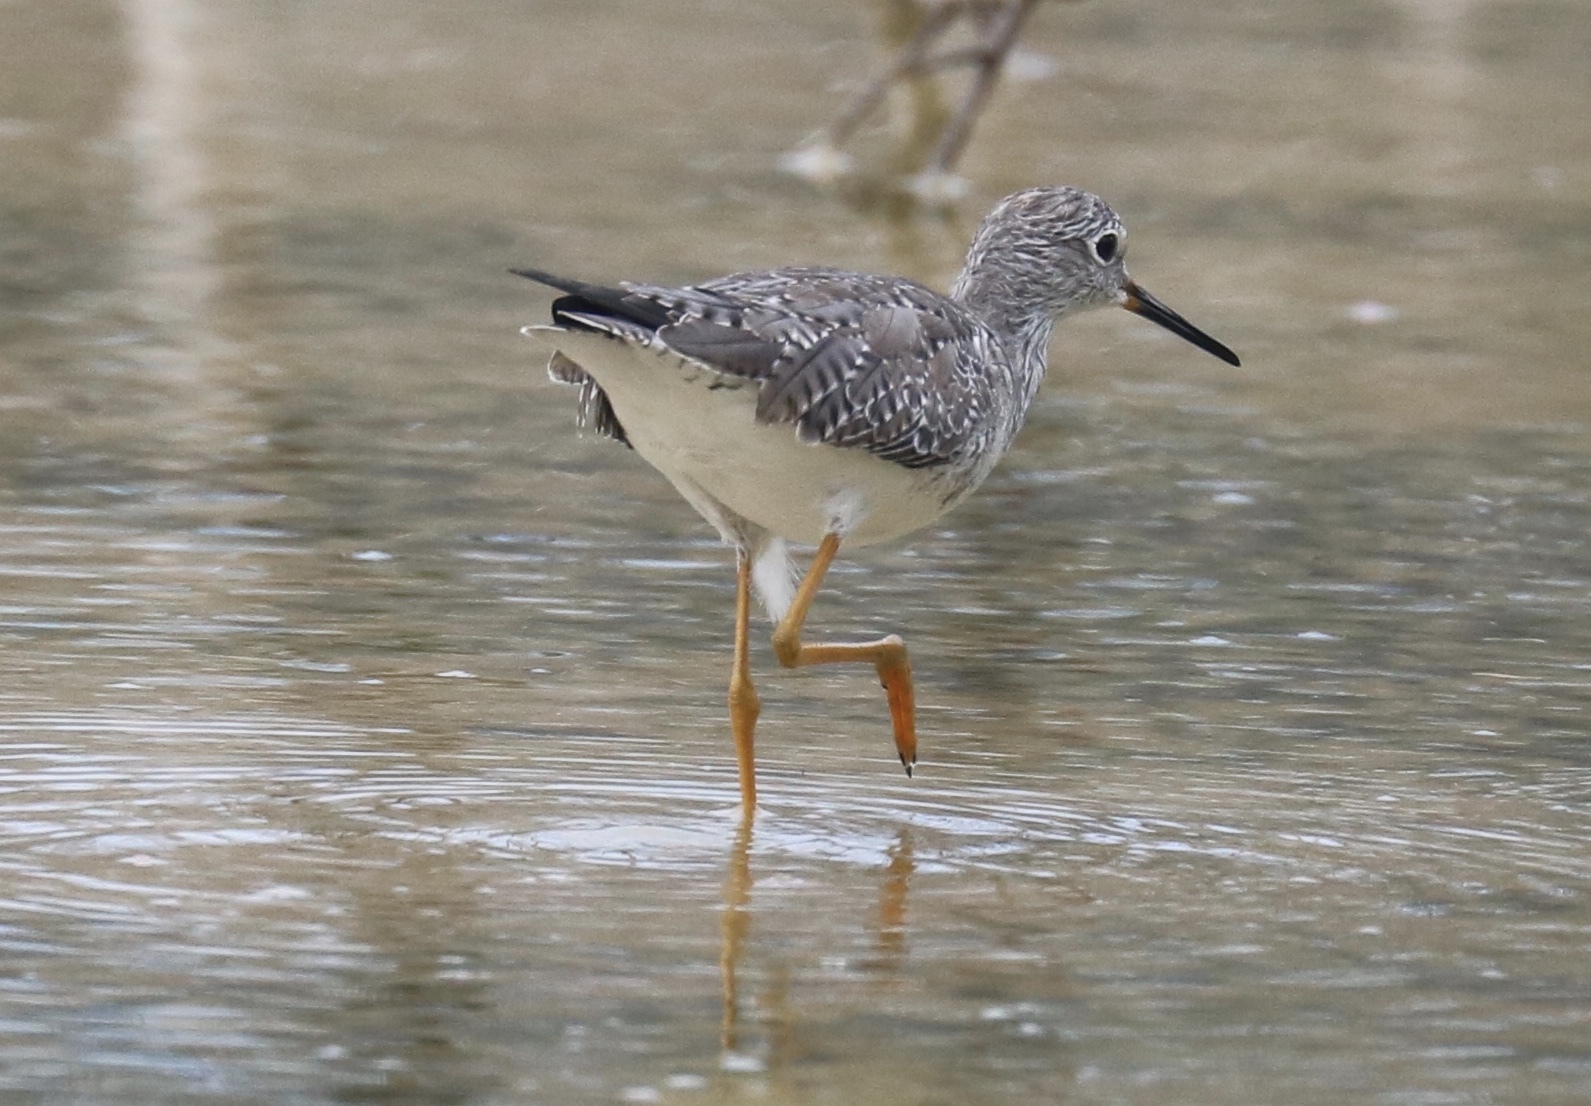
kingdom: Animalia
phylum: Chordata
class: Aves
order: Charadriiformes
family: Scolopacidae
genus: Tringa
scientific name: Tringa flavipes
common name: Lesser yellowlegs
